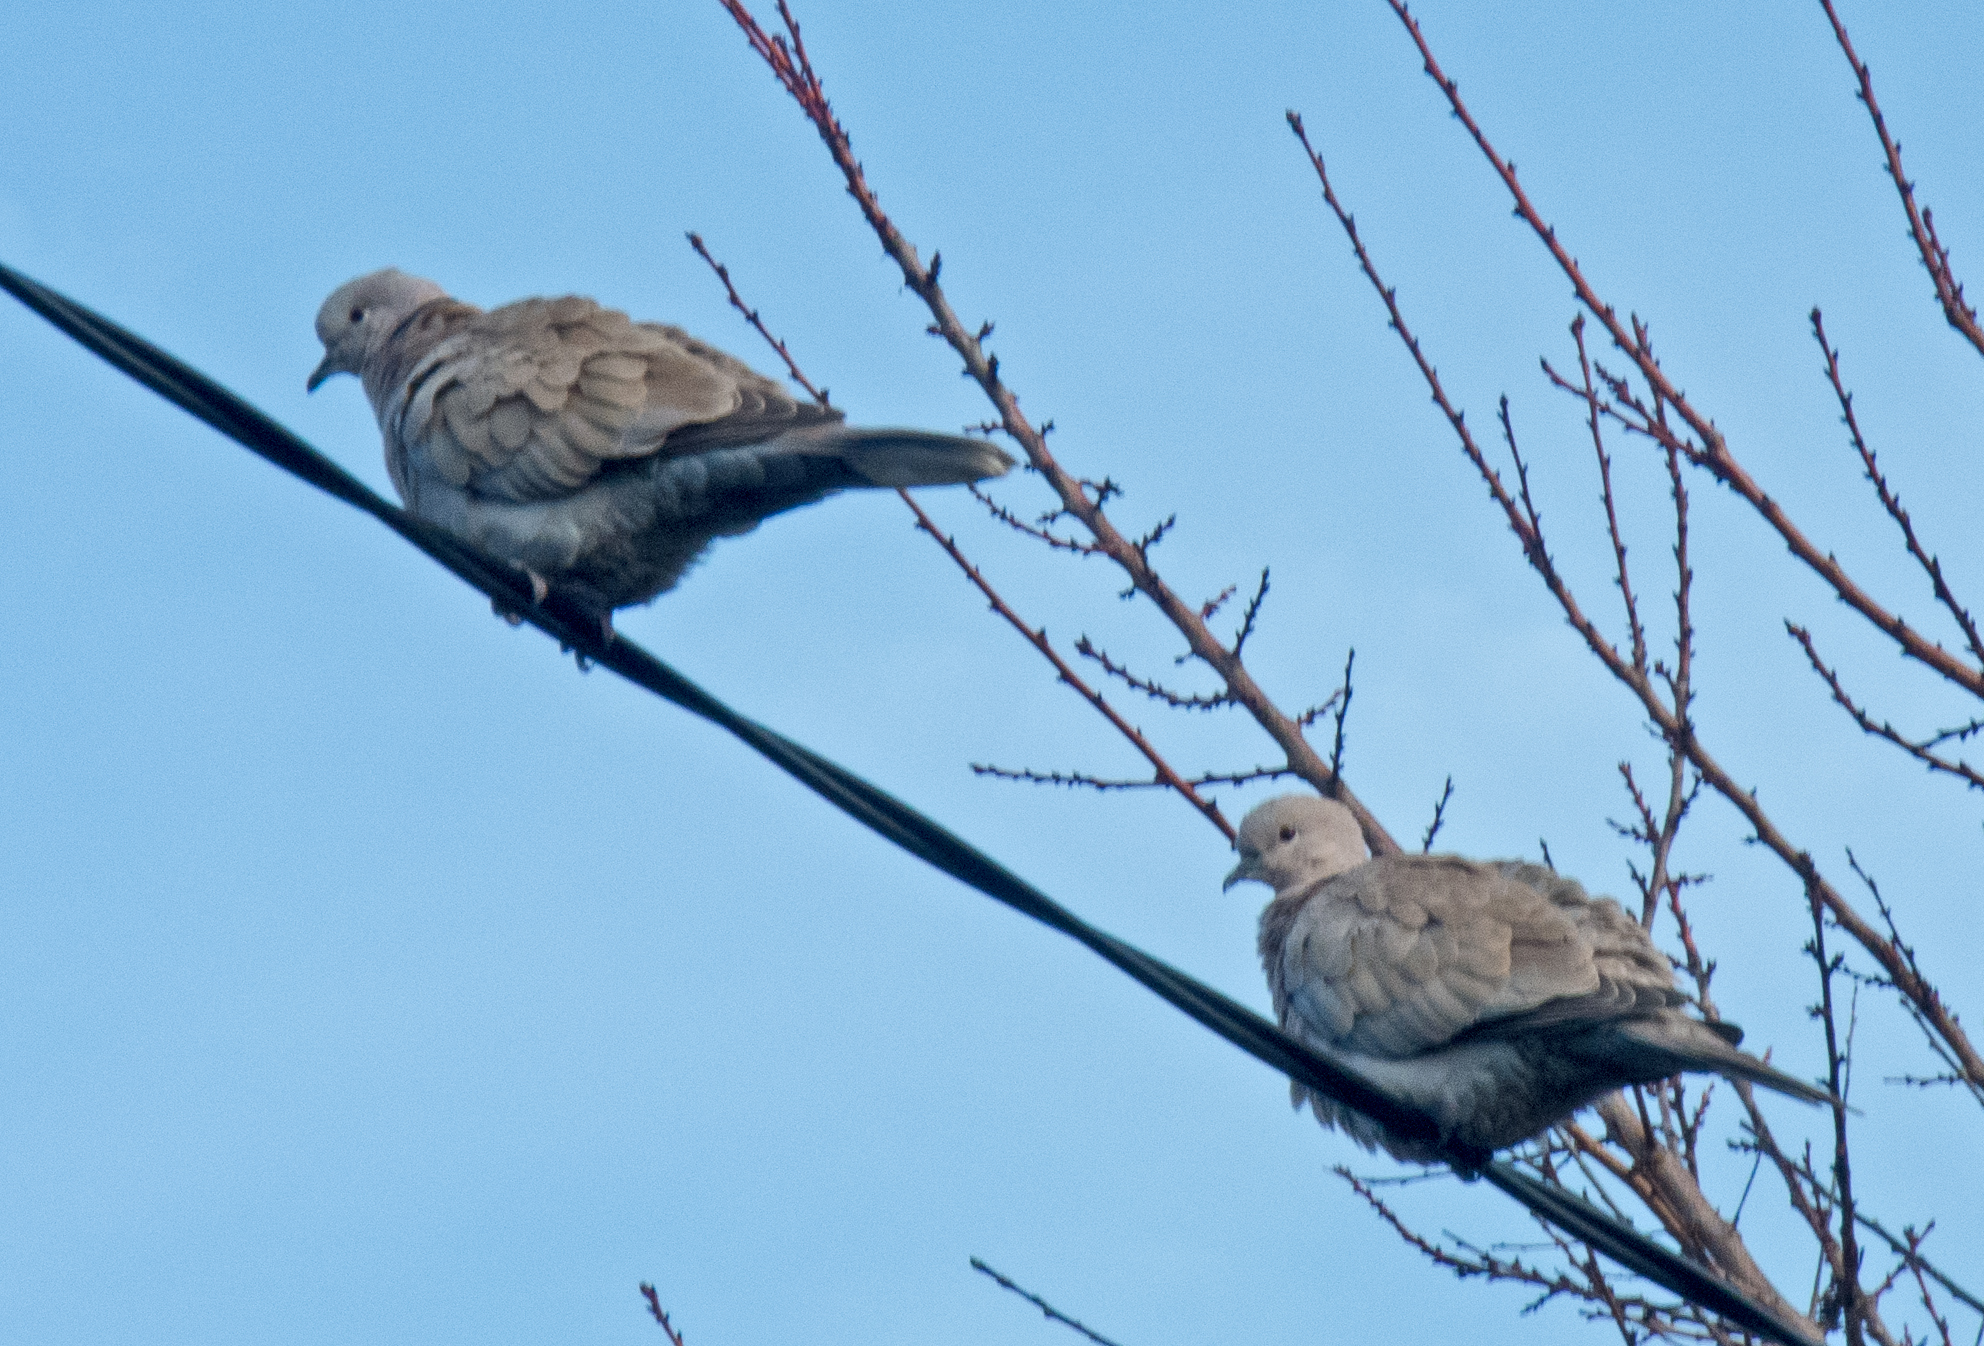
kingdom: Animalia
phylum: Chordata
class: Aves
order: Columbiformes
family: Columbidae
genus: Streptopelia
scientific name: Streptopelia decaocto
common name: Eurasian collared dove
